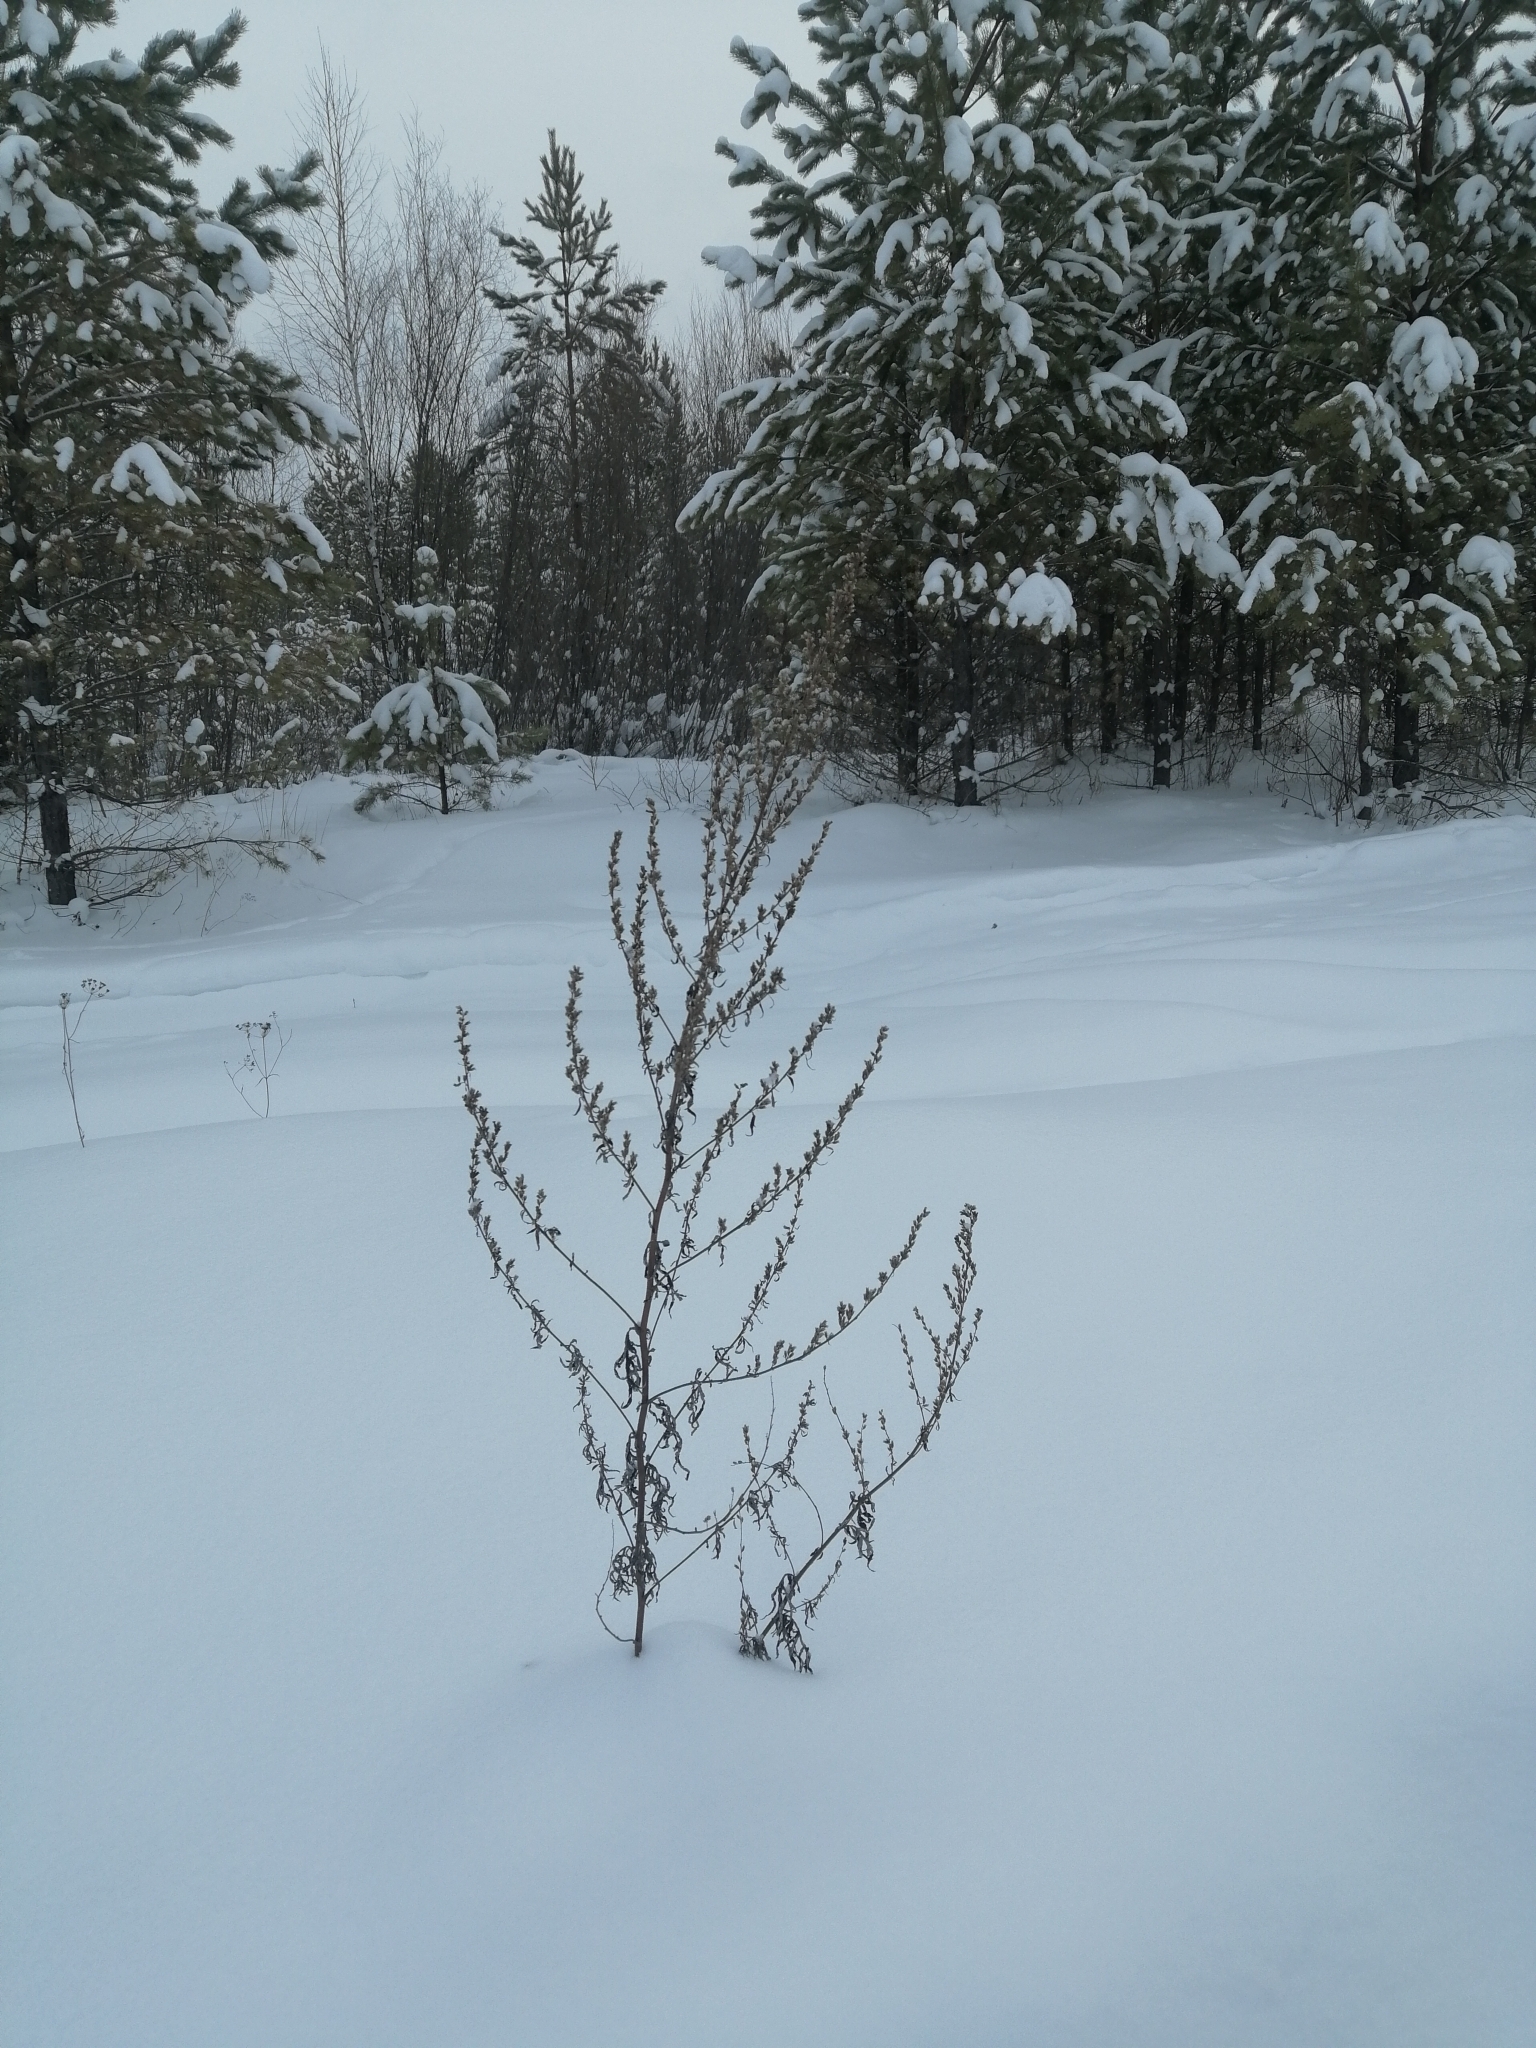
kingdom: Plantae
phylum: Tracheophyta
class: Magnoliopsida
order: Asterales
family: Asteraceae
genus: Artemisia
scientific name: Artemisia vulgaris
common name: Mugwort
